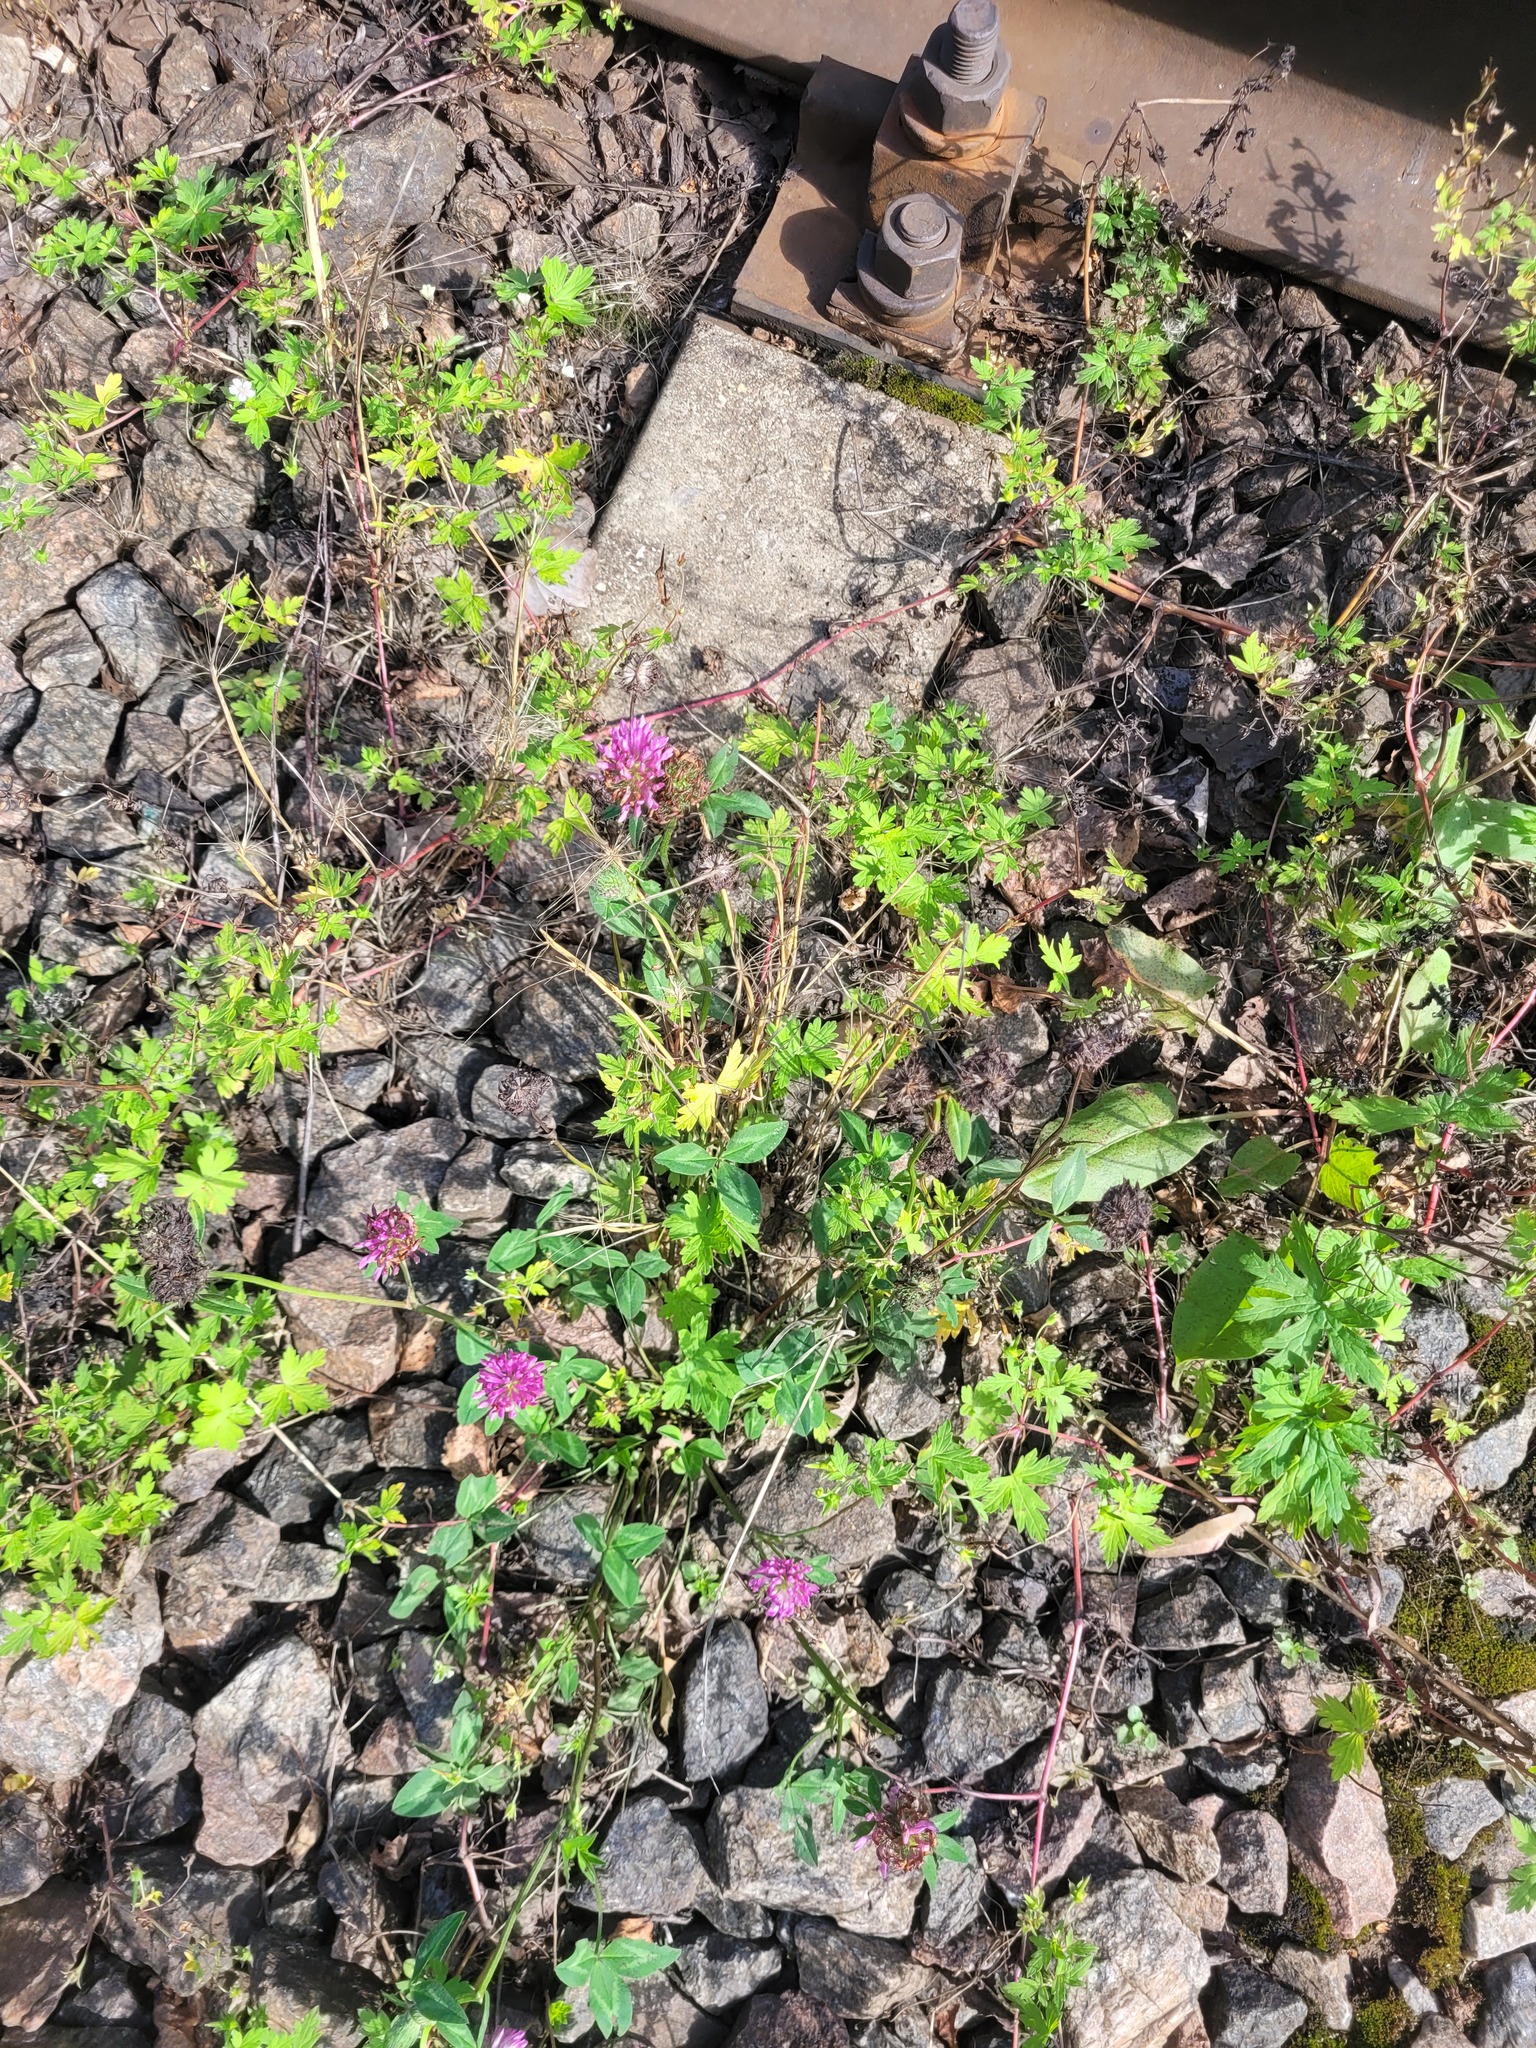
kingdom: Plantae
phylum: Tracheophyta
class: Magnoliopsida
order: Fabales
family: Fabaceae
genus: Trifolium
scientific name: Trifolium pratense
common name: Red clover
